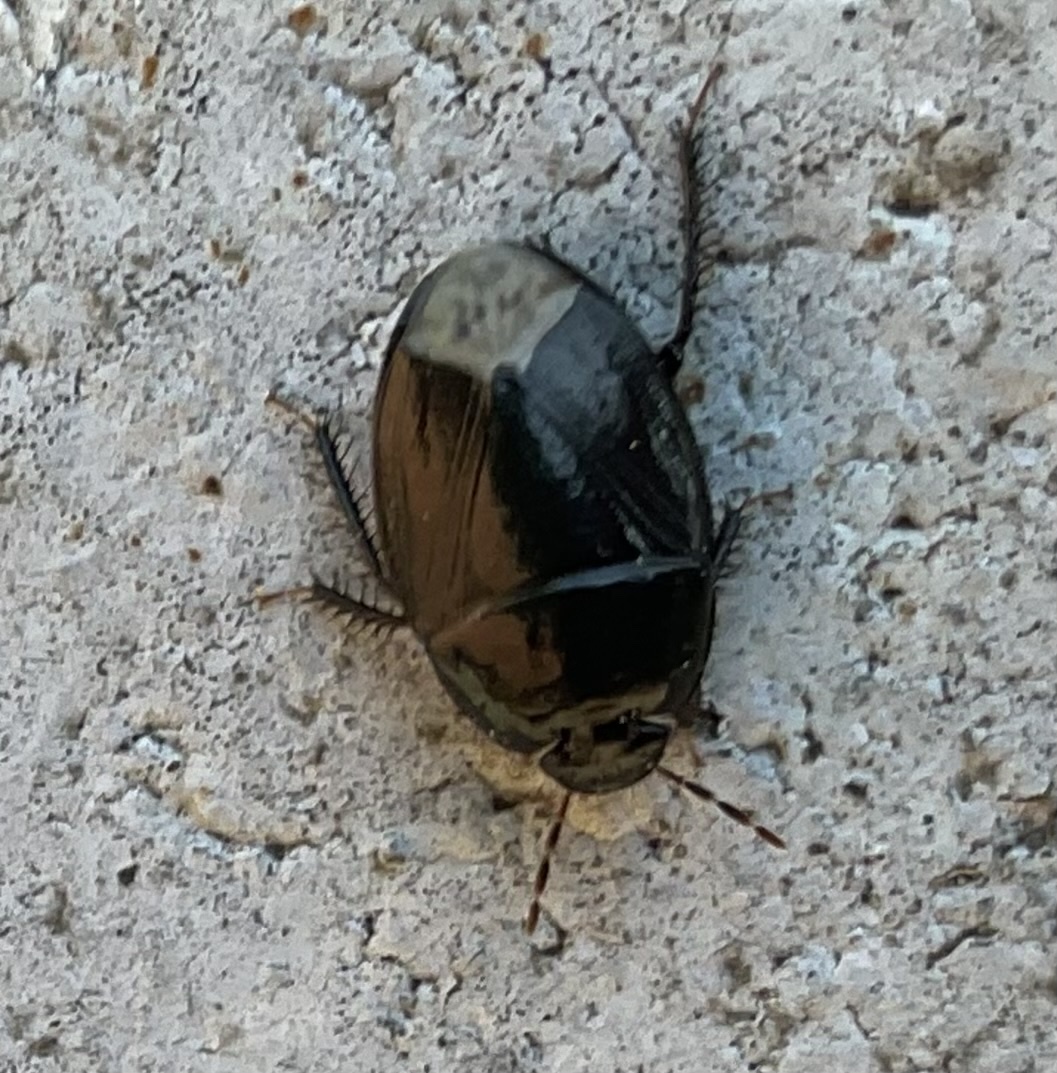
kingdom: Animalia
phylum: Arthropoda
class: Insecta
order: Hemiptera
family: Cydnidae
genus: Macroscytus
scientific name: Macroscytus brunneus
